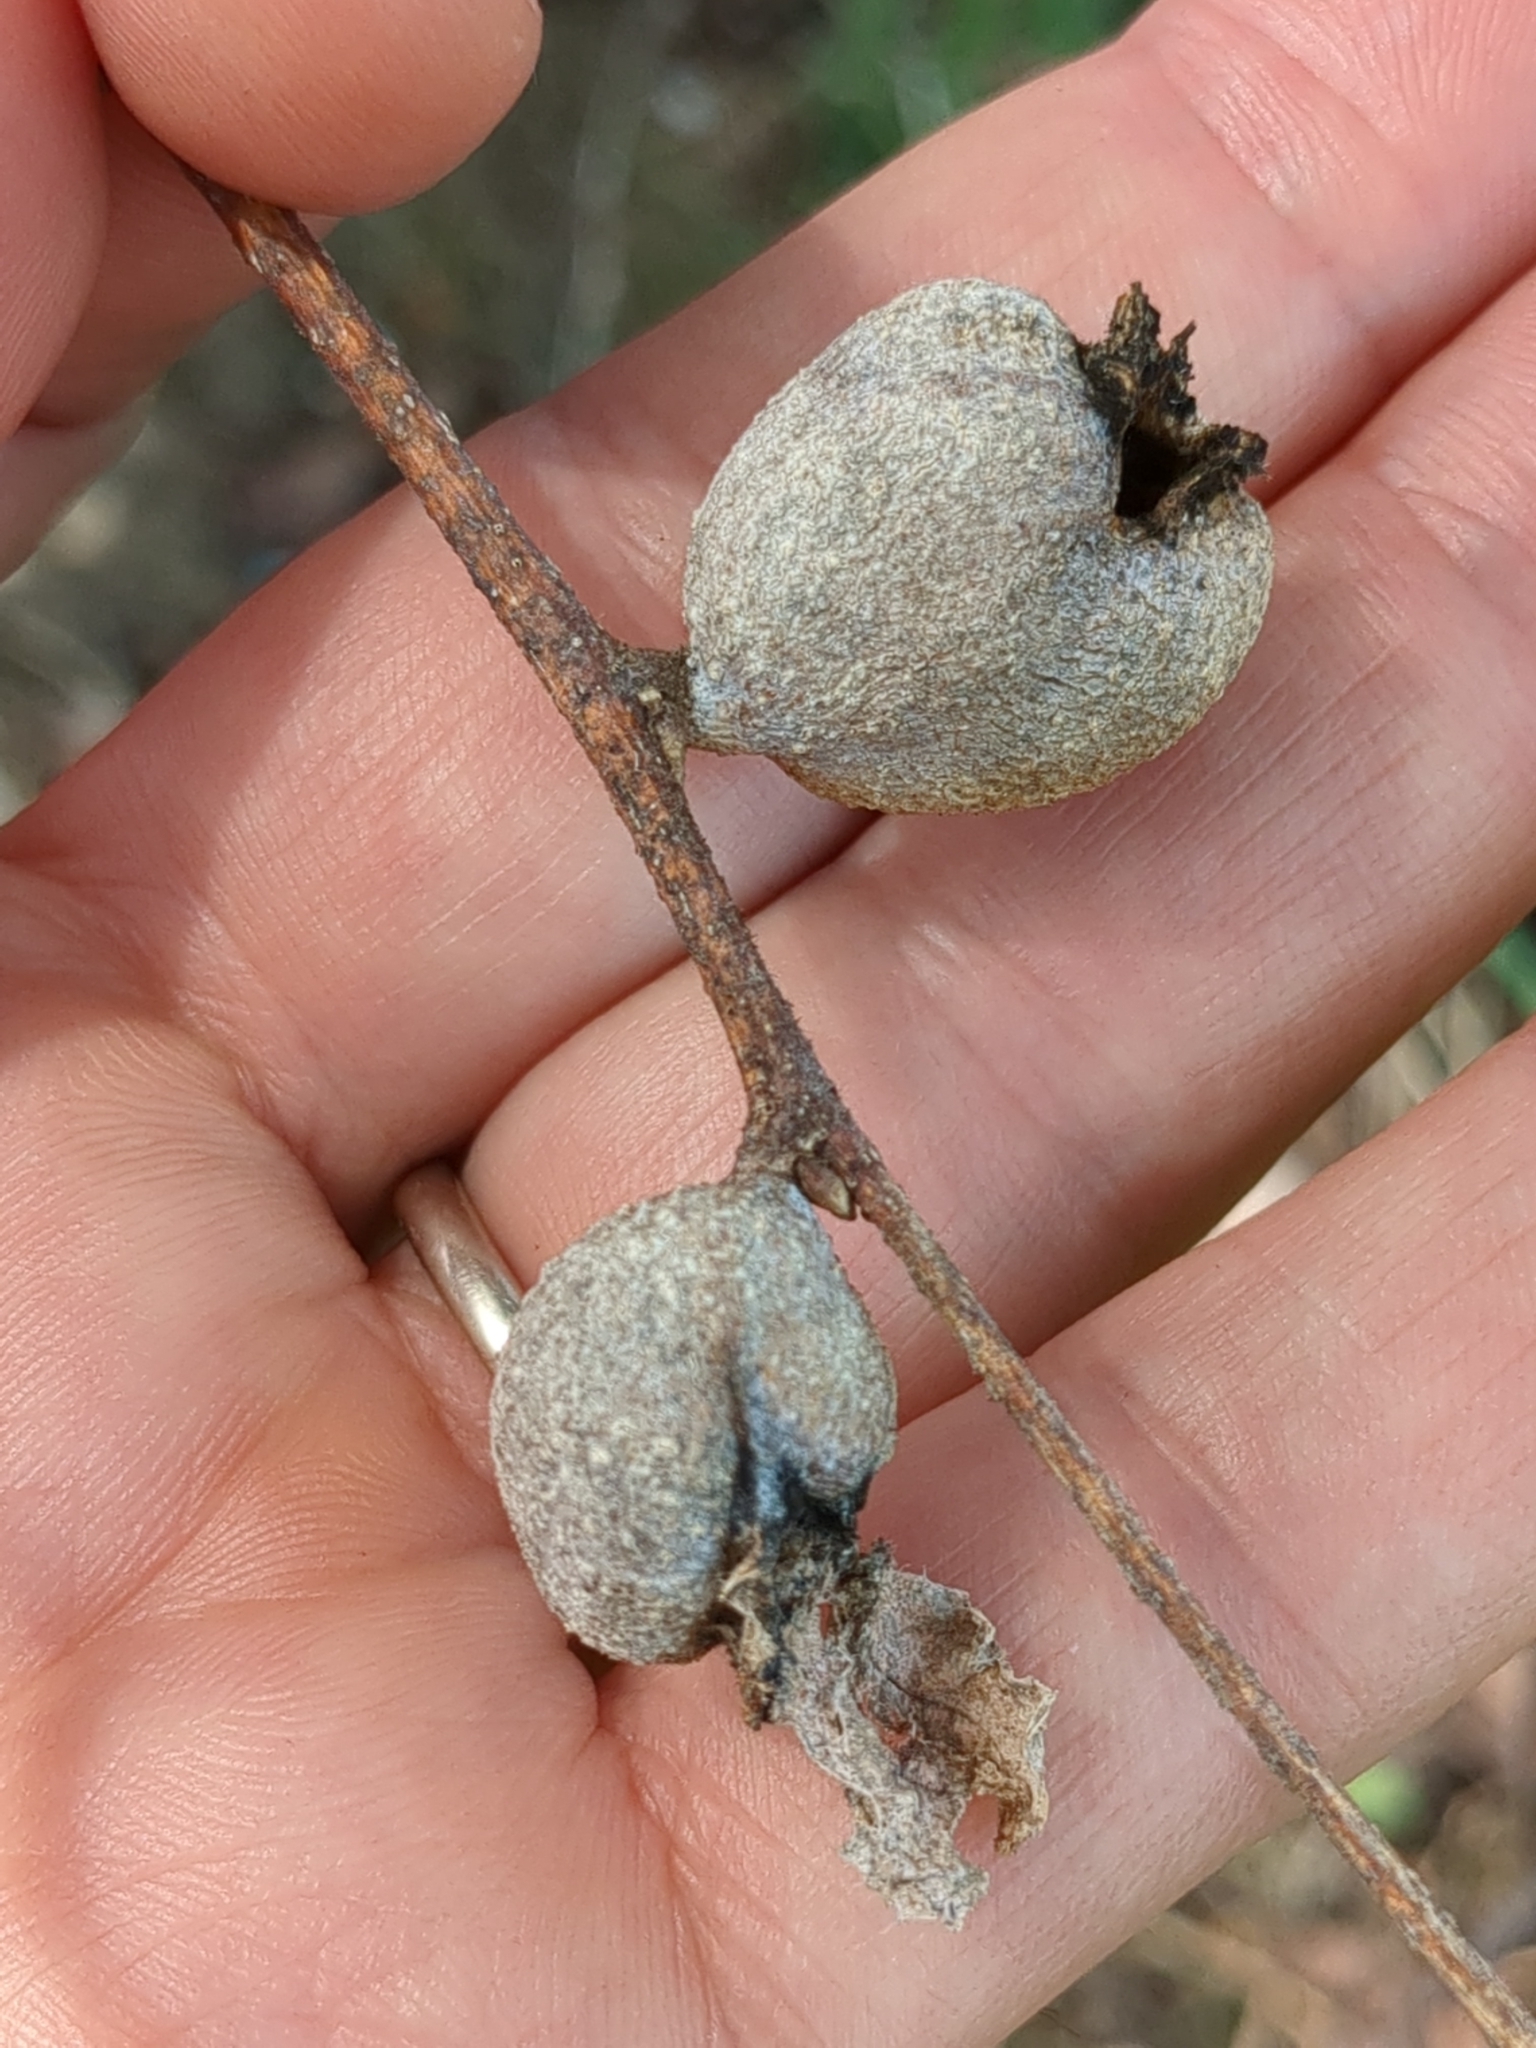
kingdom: Animalia
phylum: Arthropoda
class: Insecta
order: Hemiptera
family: Aphalaridae
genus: Pachypsylla
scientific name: Pachypsylla venusta
